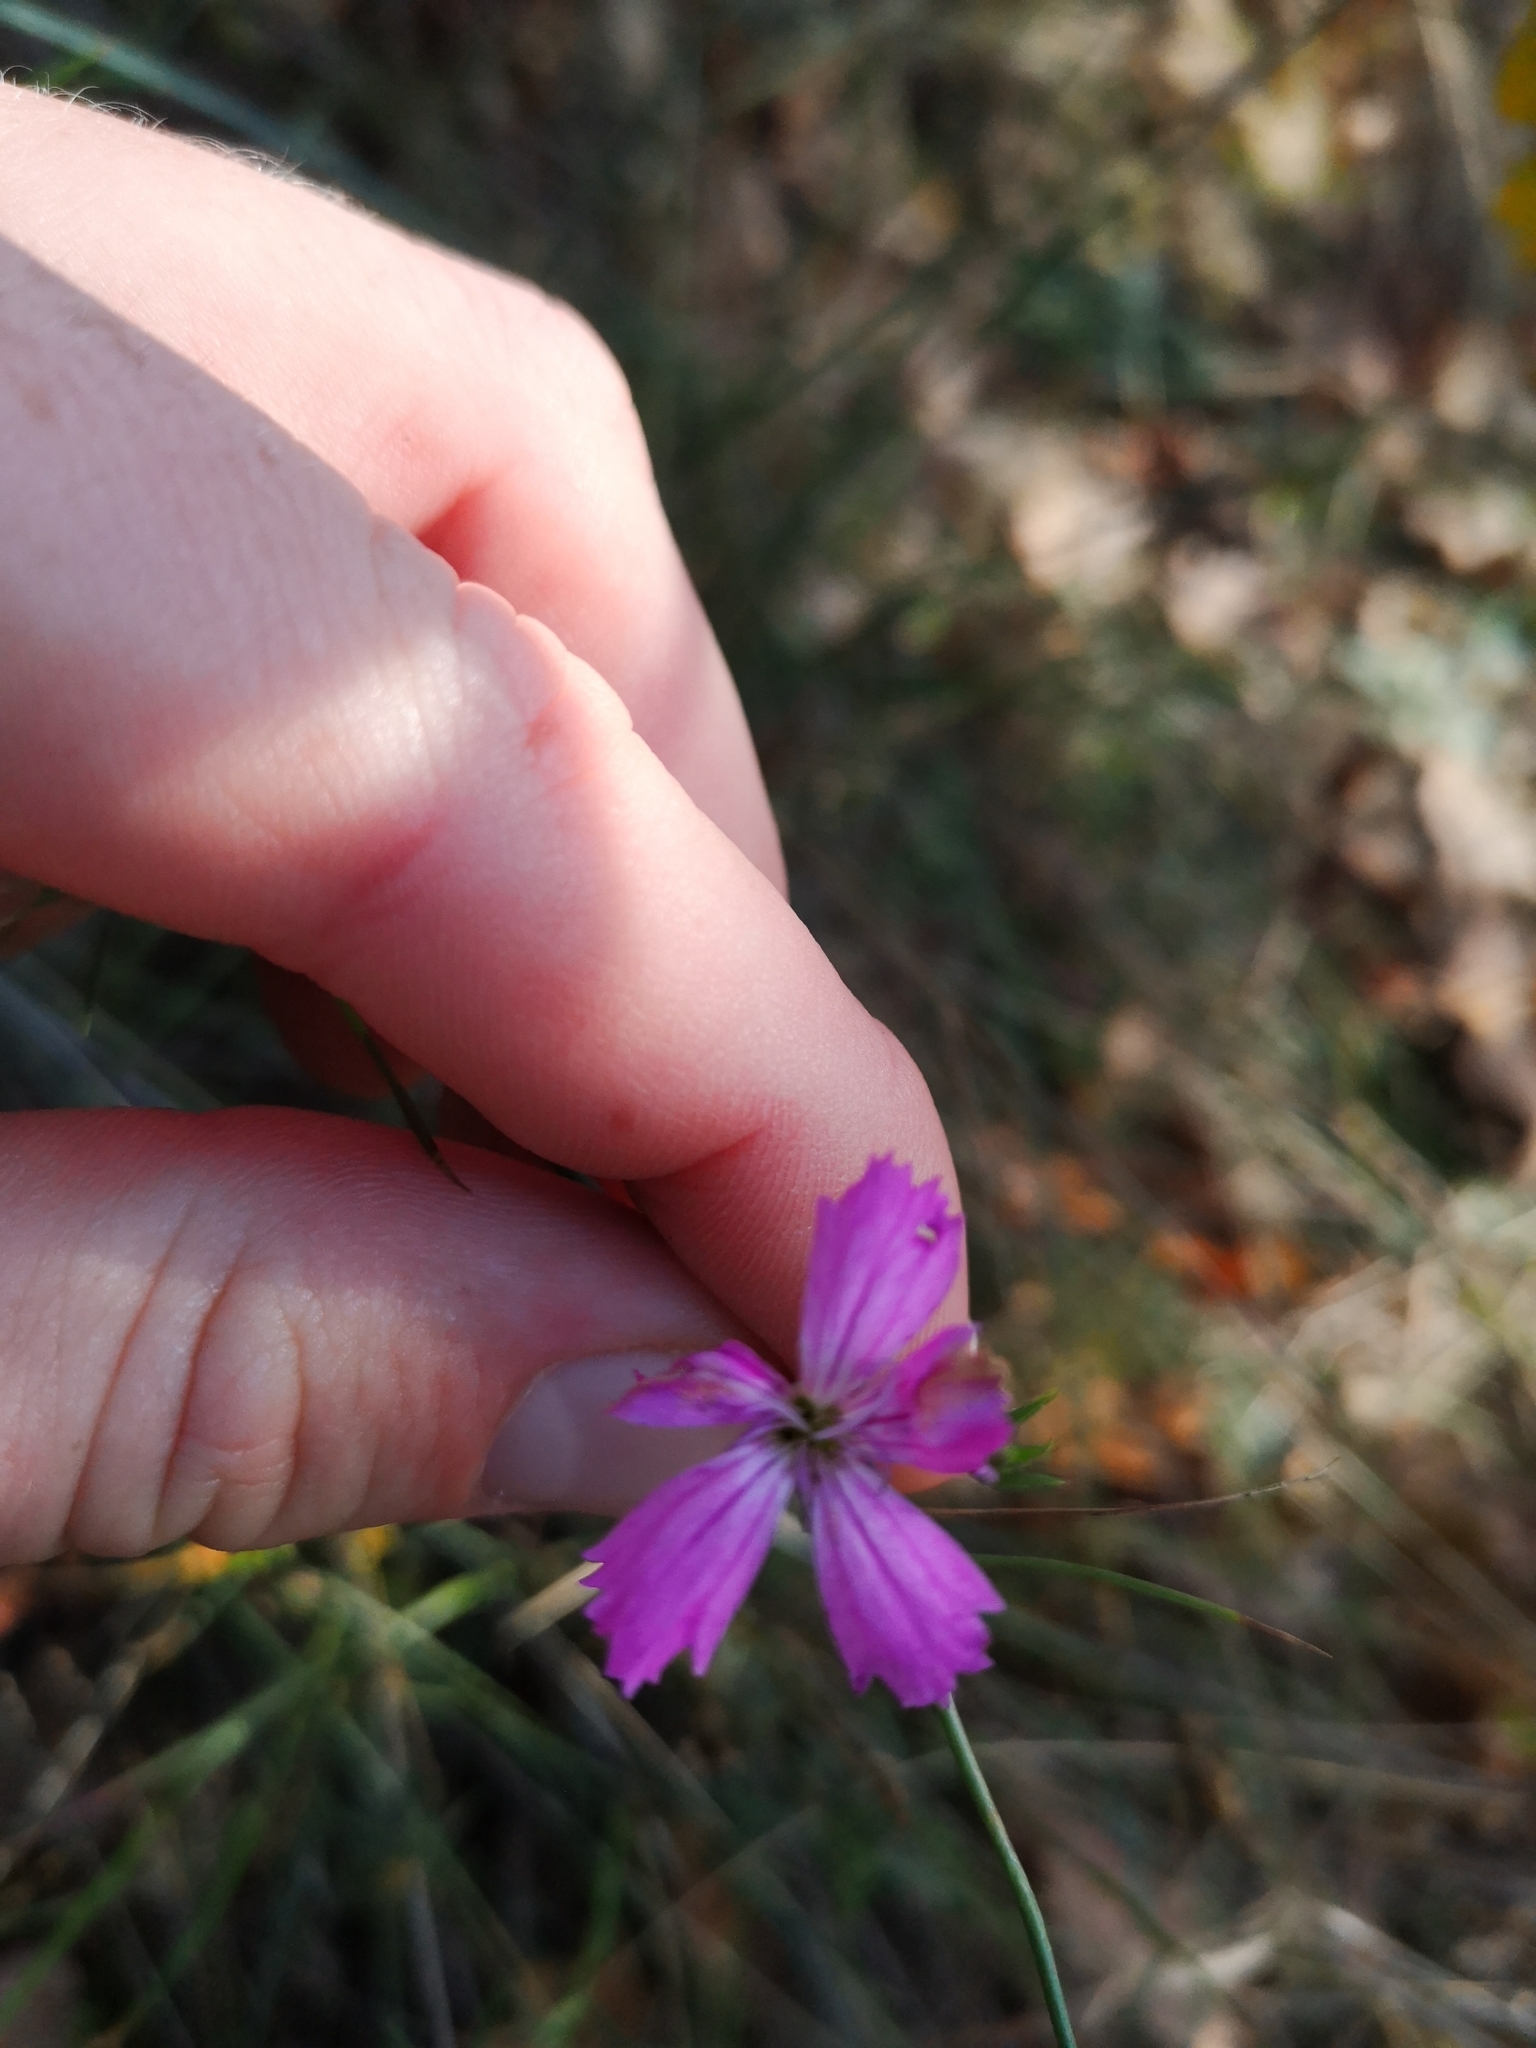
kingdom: Plantae
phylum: Tracheophyta
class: Magnoliopsida
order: Caryophyllales
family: Caryophyllaceae
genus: Dianthus
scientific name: Dianthus carthusianorum
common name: Carthusian pink
